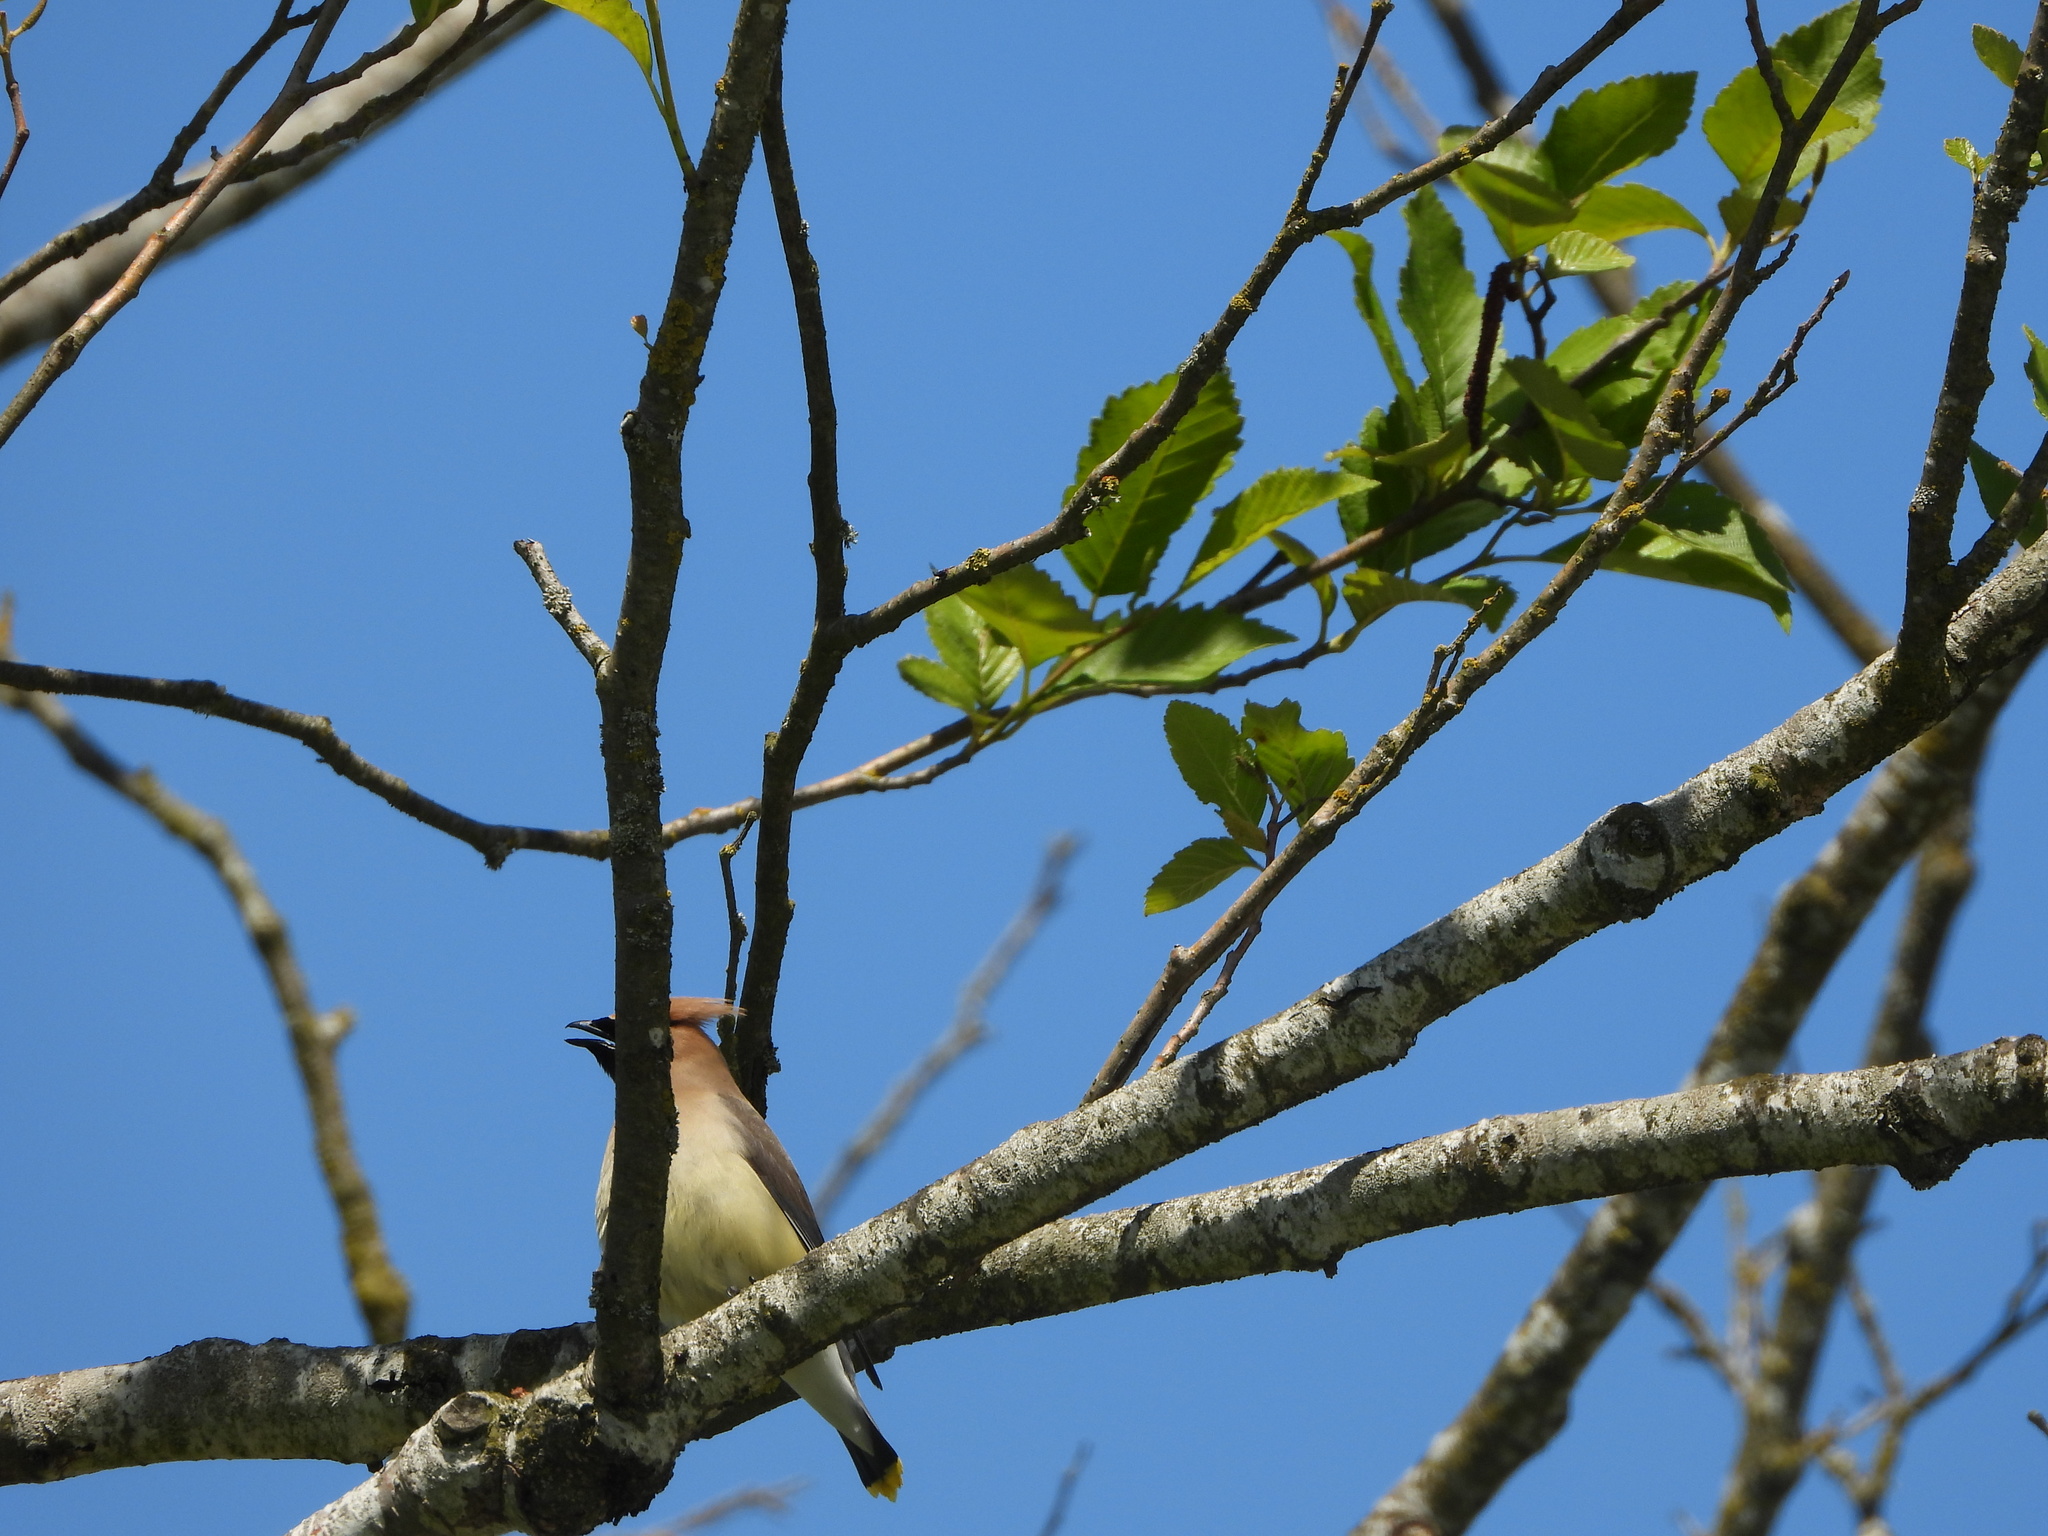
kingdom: Animalia
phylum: Chordata
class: Aves
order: Passeriformes
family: Bombycillidae
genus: Bombycilla
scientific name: Bombycilla cedrorum
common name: Cedar waxwing
